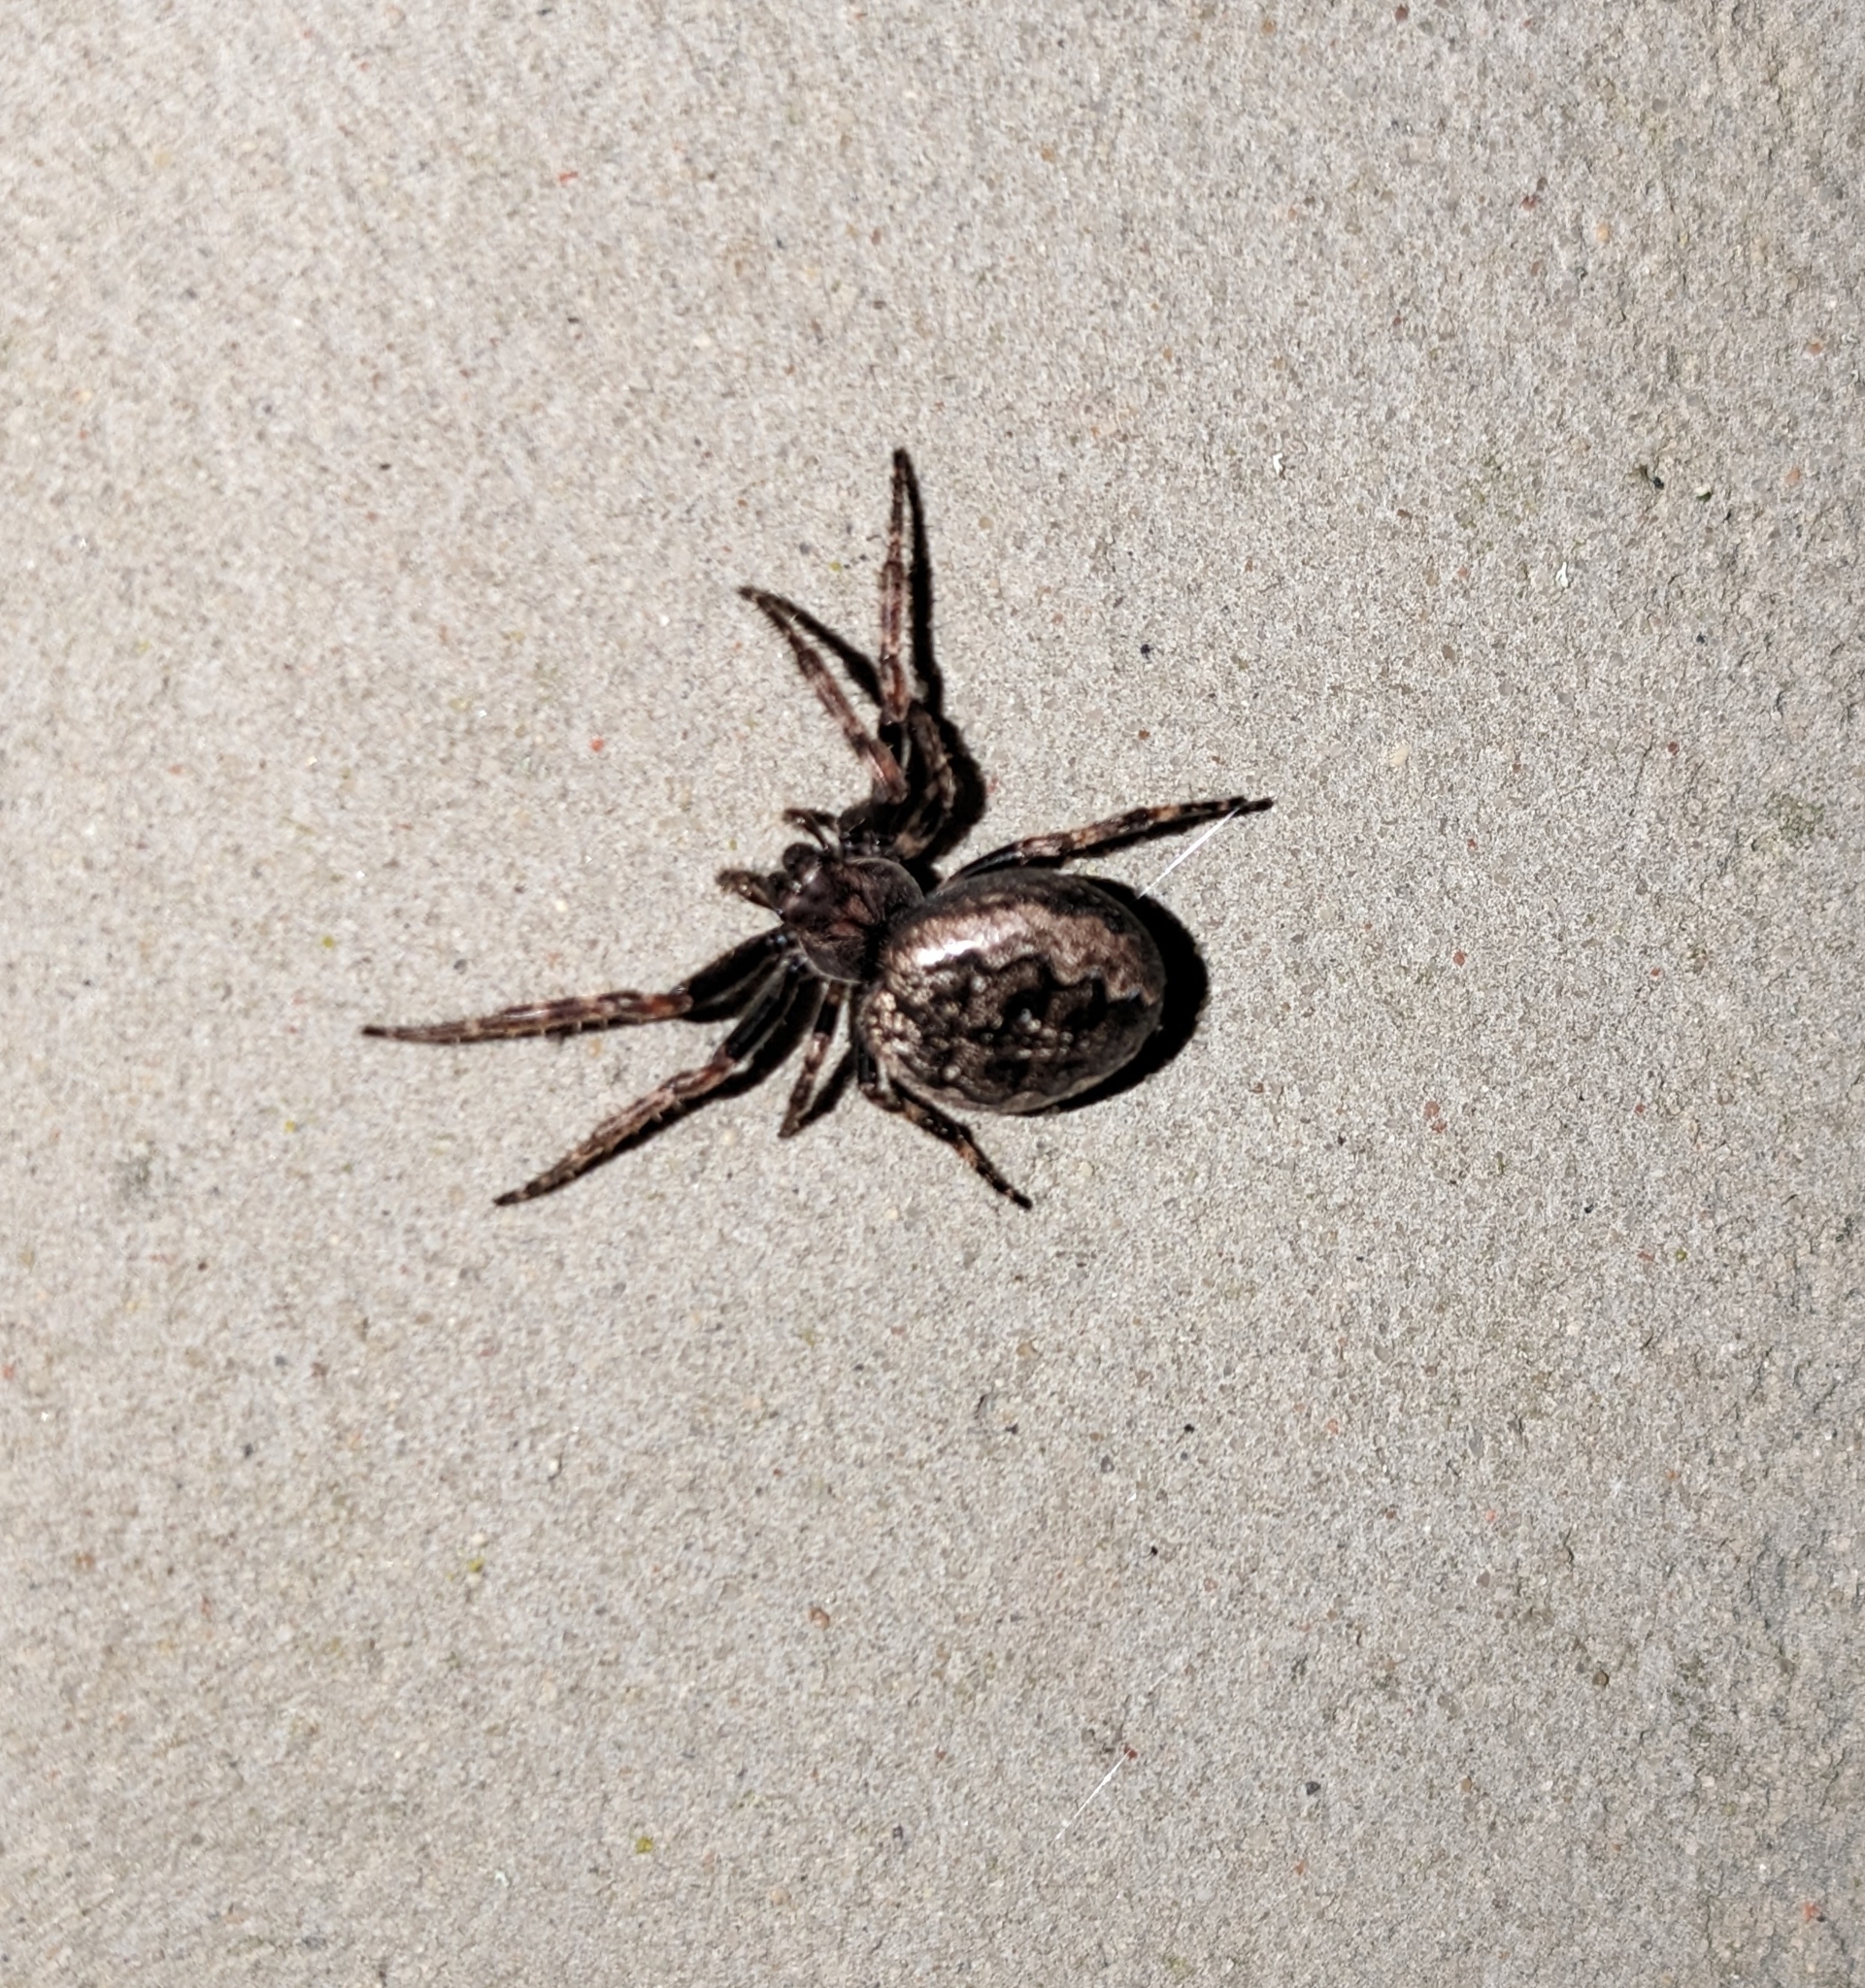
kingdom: Animalia
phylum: Arthropoda
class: Arachnida
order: Araneae
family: Araneidae
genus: Nuctenea
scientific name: Nuctenea umbratica
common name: Toad spider
